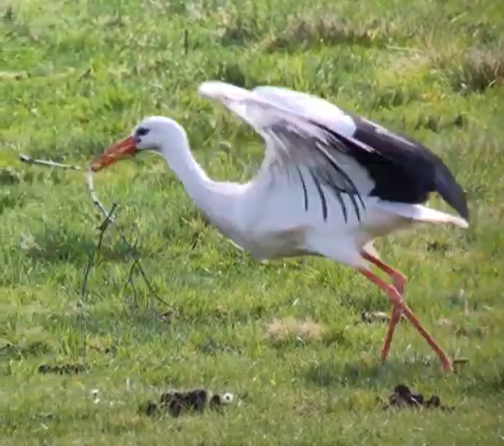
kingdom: Animalia
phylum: Chordata
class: Aves
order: Ciconiiformes
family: Ciconiidae
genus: Ciconia
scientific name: Ciconia ciconia
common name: White stork
